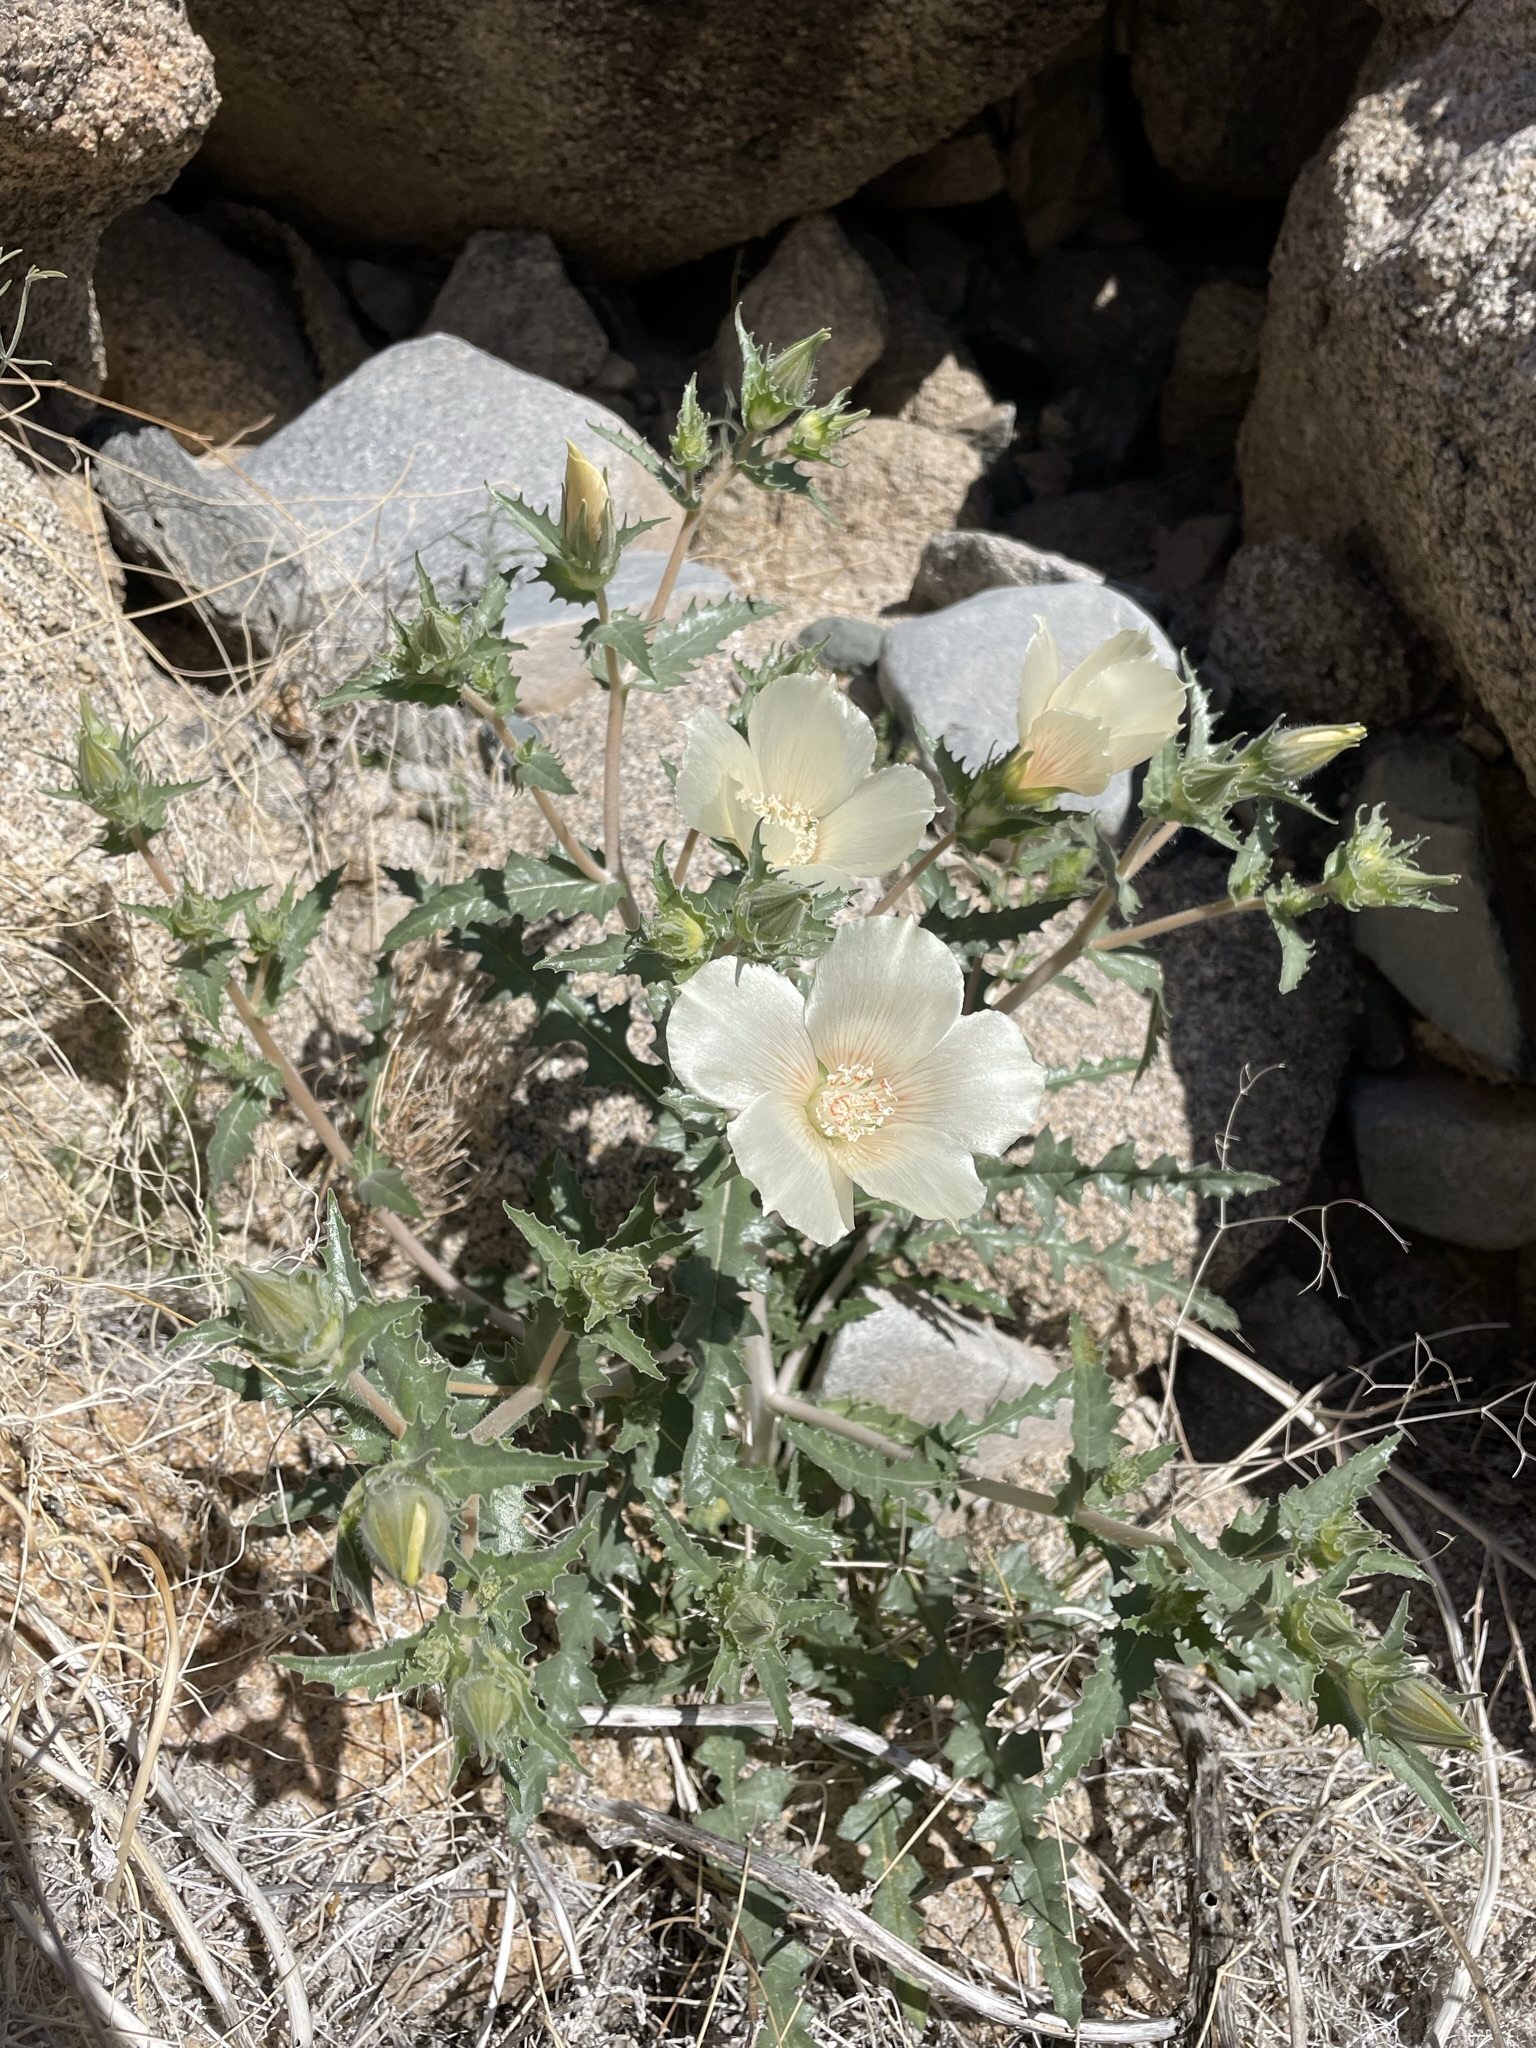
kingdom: Plantae
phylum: Tracheophyta
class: Magnoliopsida
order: Cornales
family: Loasaceae
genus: Mentzelia
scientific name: Mentzelia involucrata
